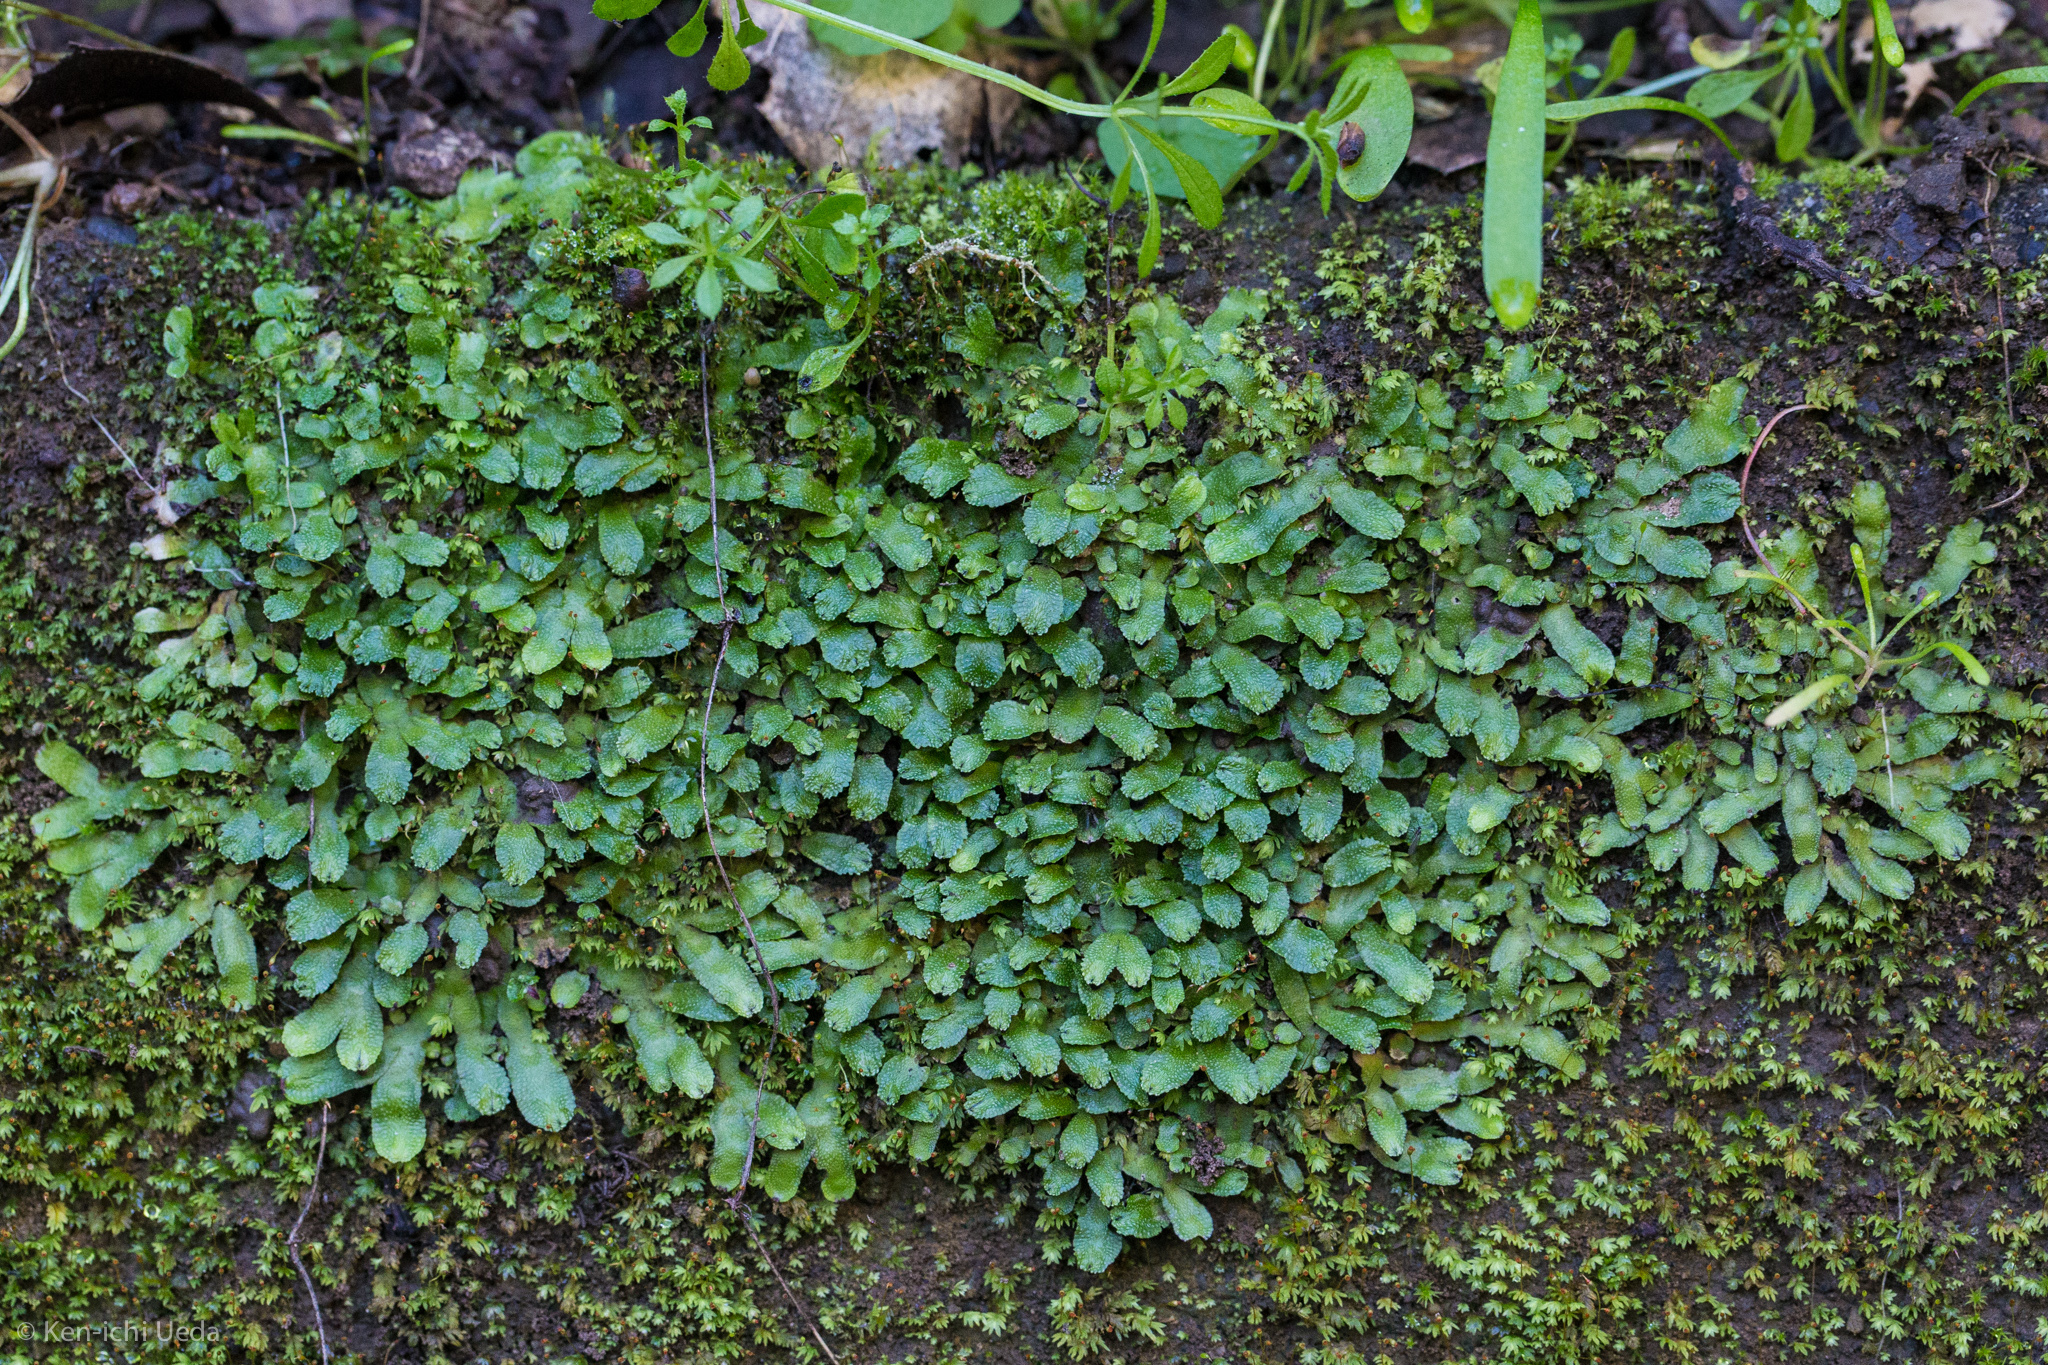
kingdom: Plantae
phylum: Marchantiophyta
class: Marchantiopsida
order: Marchantiales
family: Targioniaceae
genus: Targionia
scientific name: Targionia hypophylla
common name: Orobus-seed liverwort
